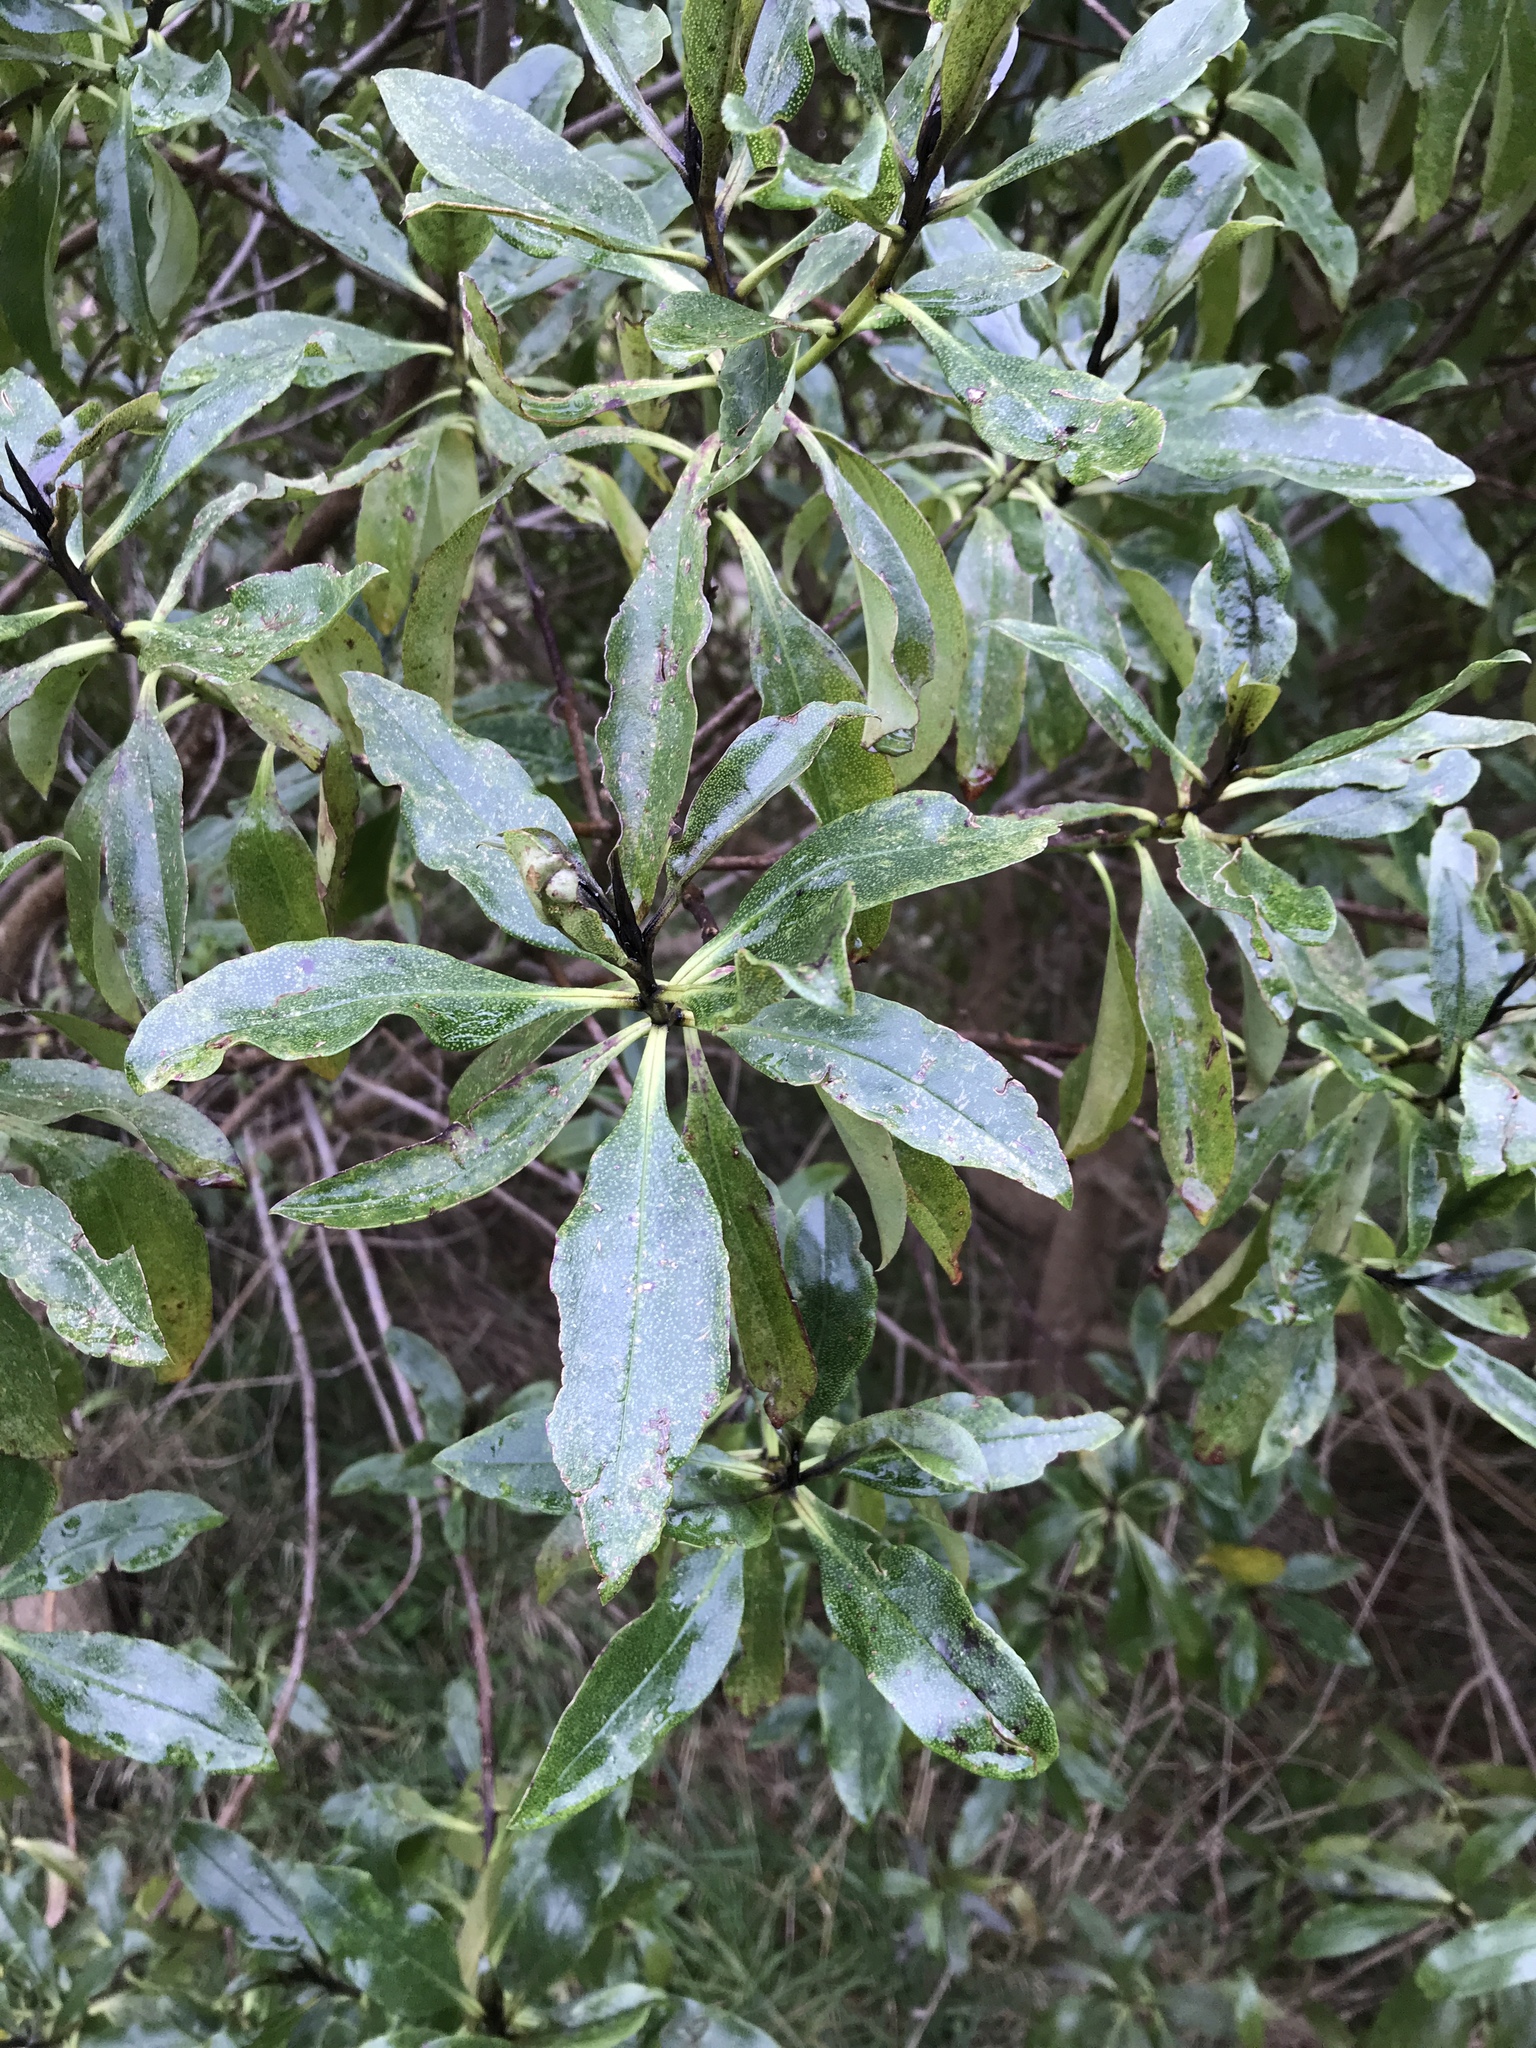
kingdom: Plantae
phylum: Tracheophyta
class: Magnoliopsida
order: Lamiales
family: Scrophulariaceae
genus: Myoporum
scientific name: Myoporum laetum
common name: Ngaio tree
